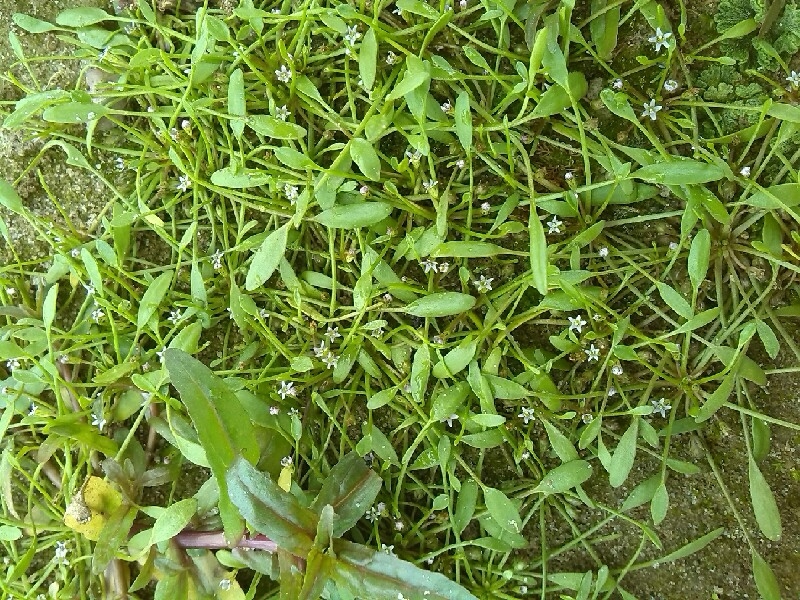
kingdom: Plantae
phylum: Tracheophyta
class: Magnoliopsida
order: Lamiales
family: Scrophulariaceae
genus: Limosella
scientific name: Limosella aquatica
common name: Mudwort
